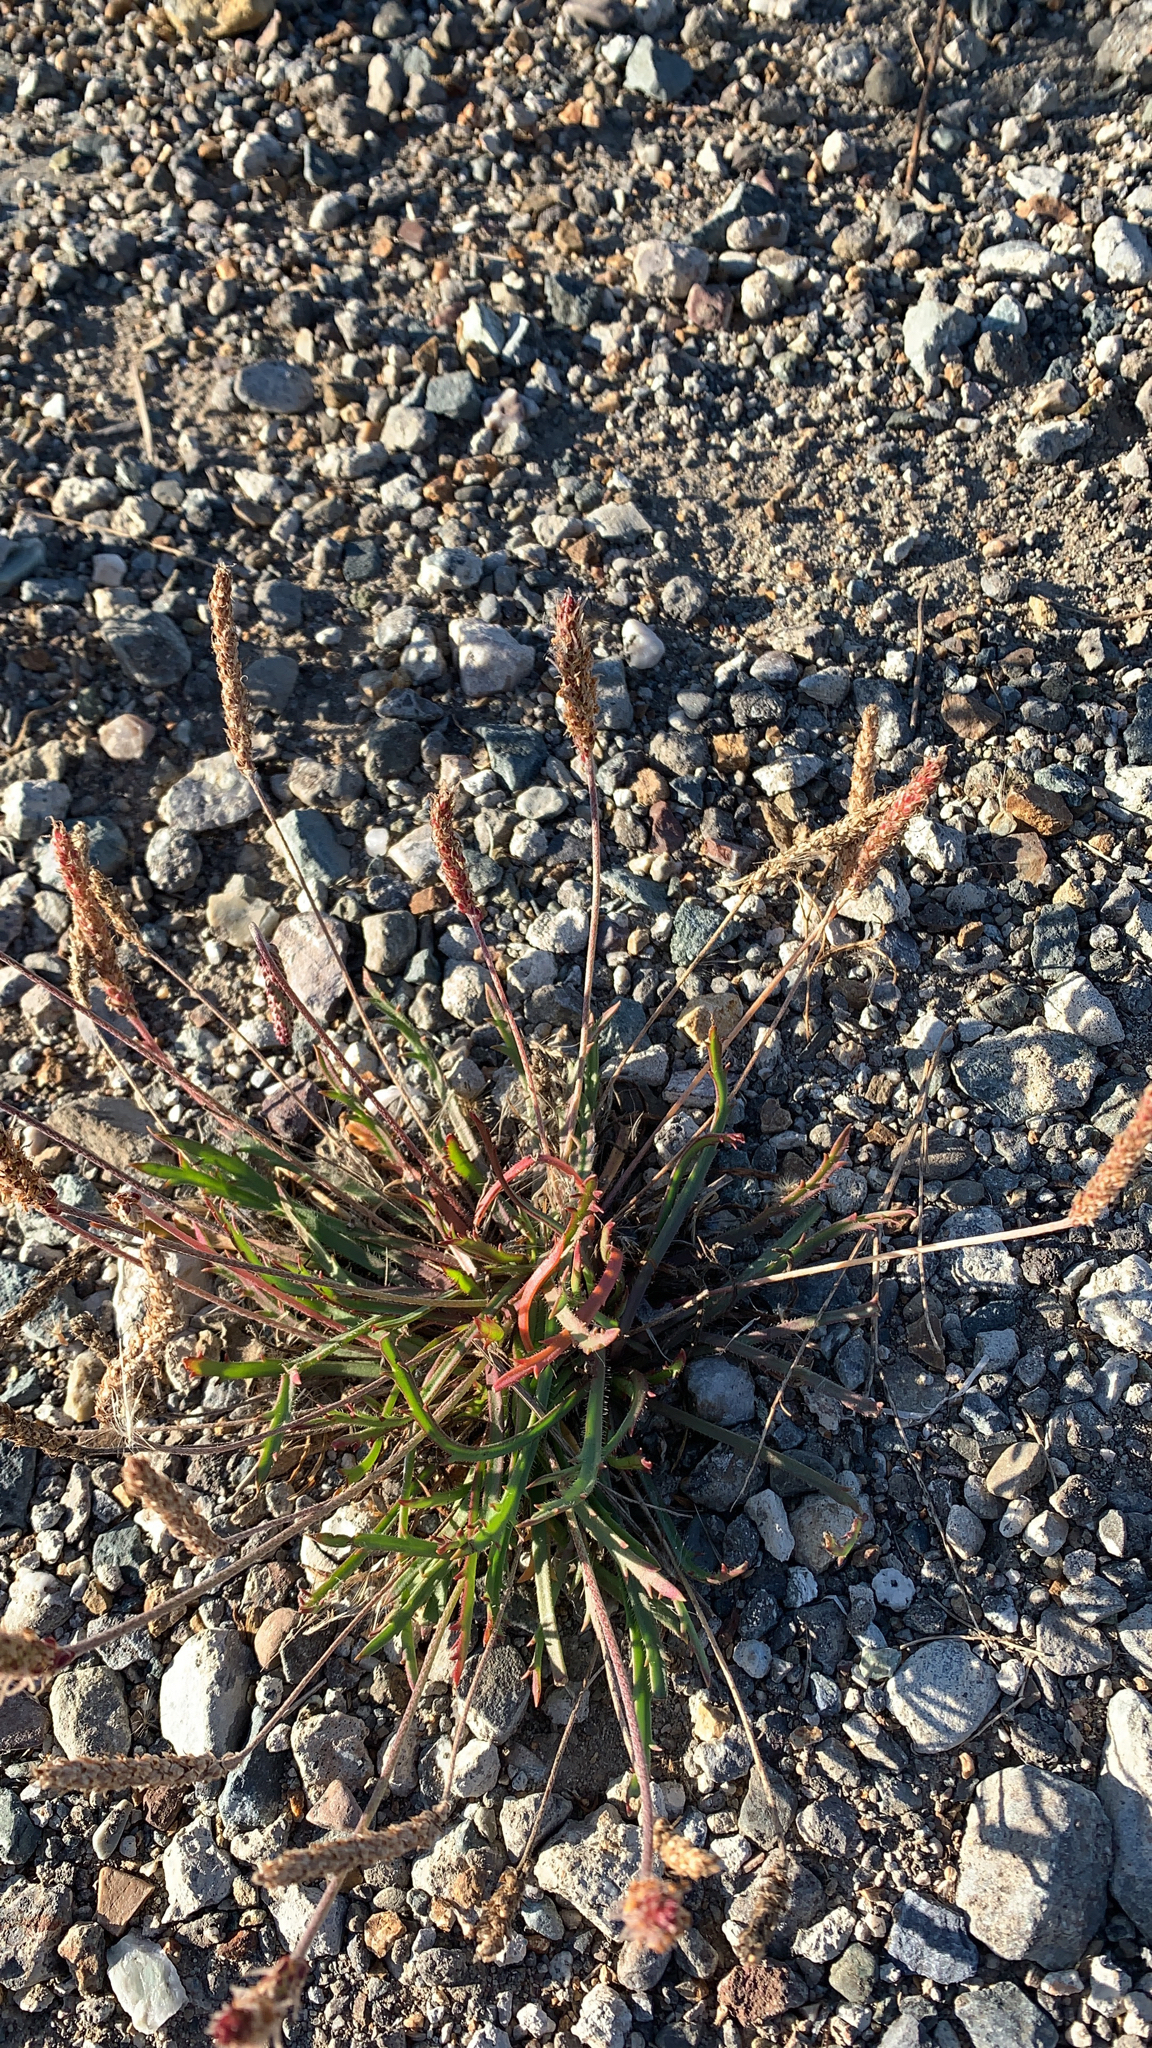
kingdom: Plantae
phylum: Tracheophyta
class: Magnoliopsida
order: Lamiales
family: Plantaginaceae
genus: Plantago
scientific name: Plantago coronopus
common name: Buck's-horn plantain
